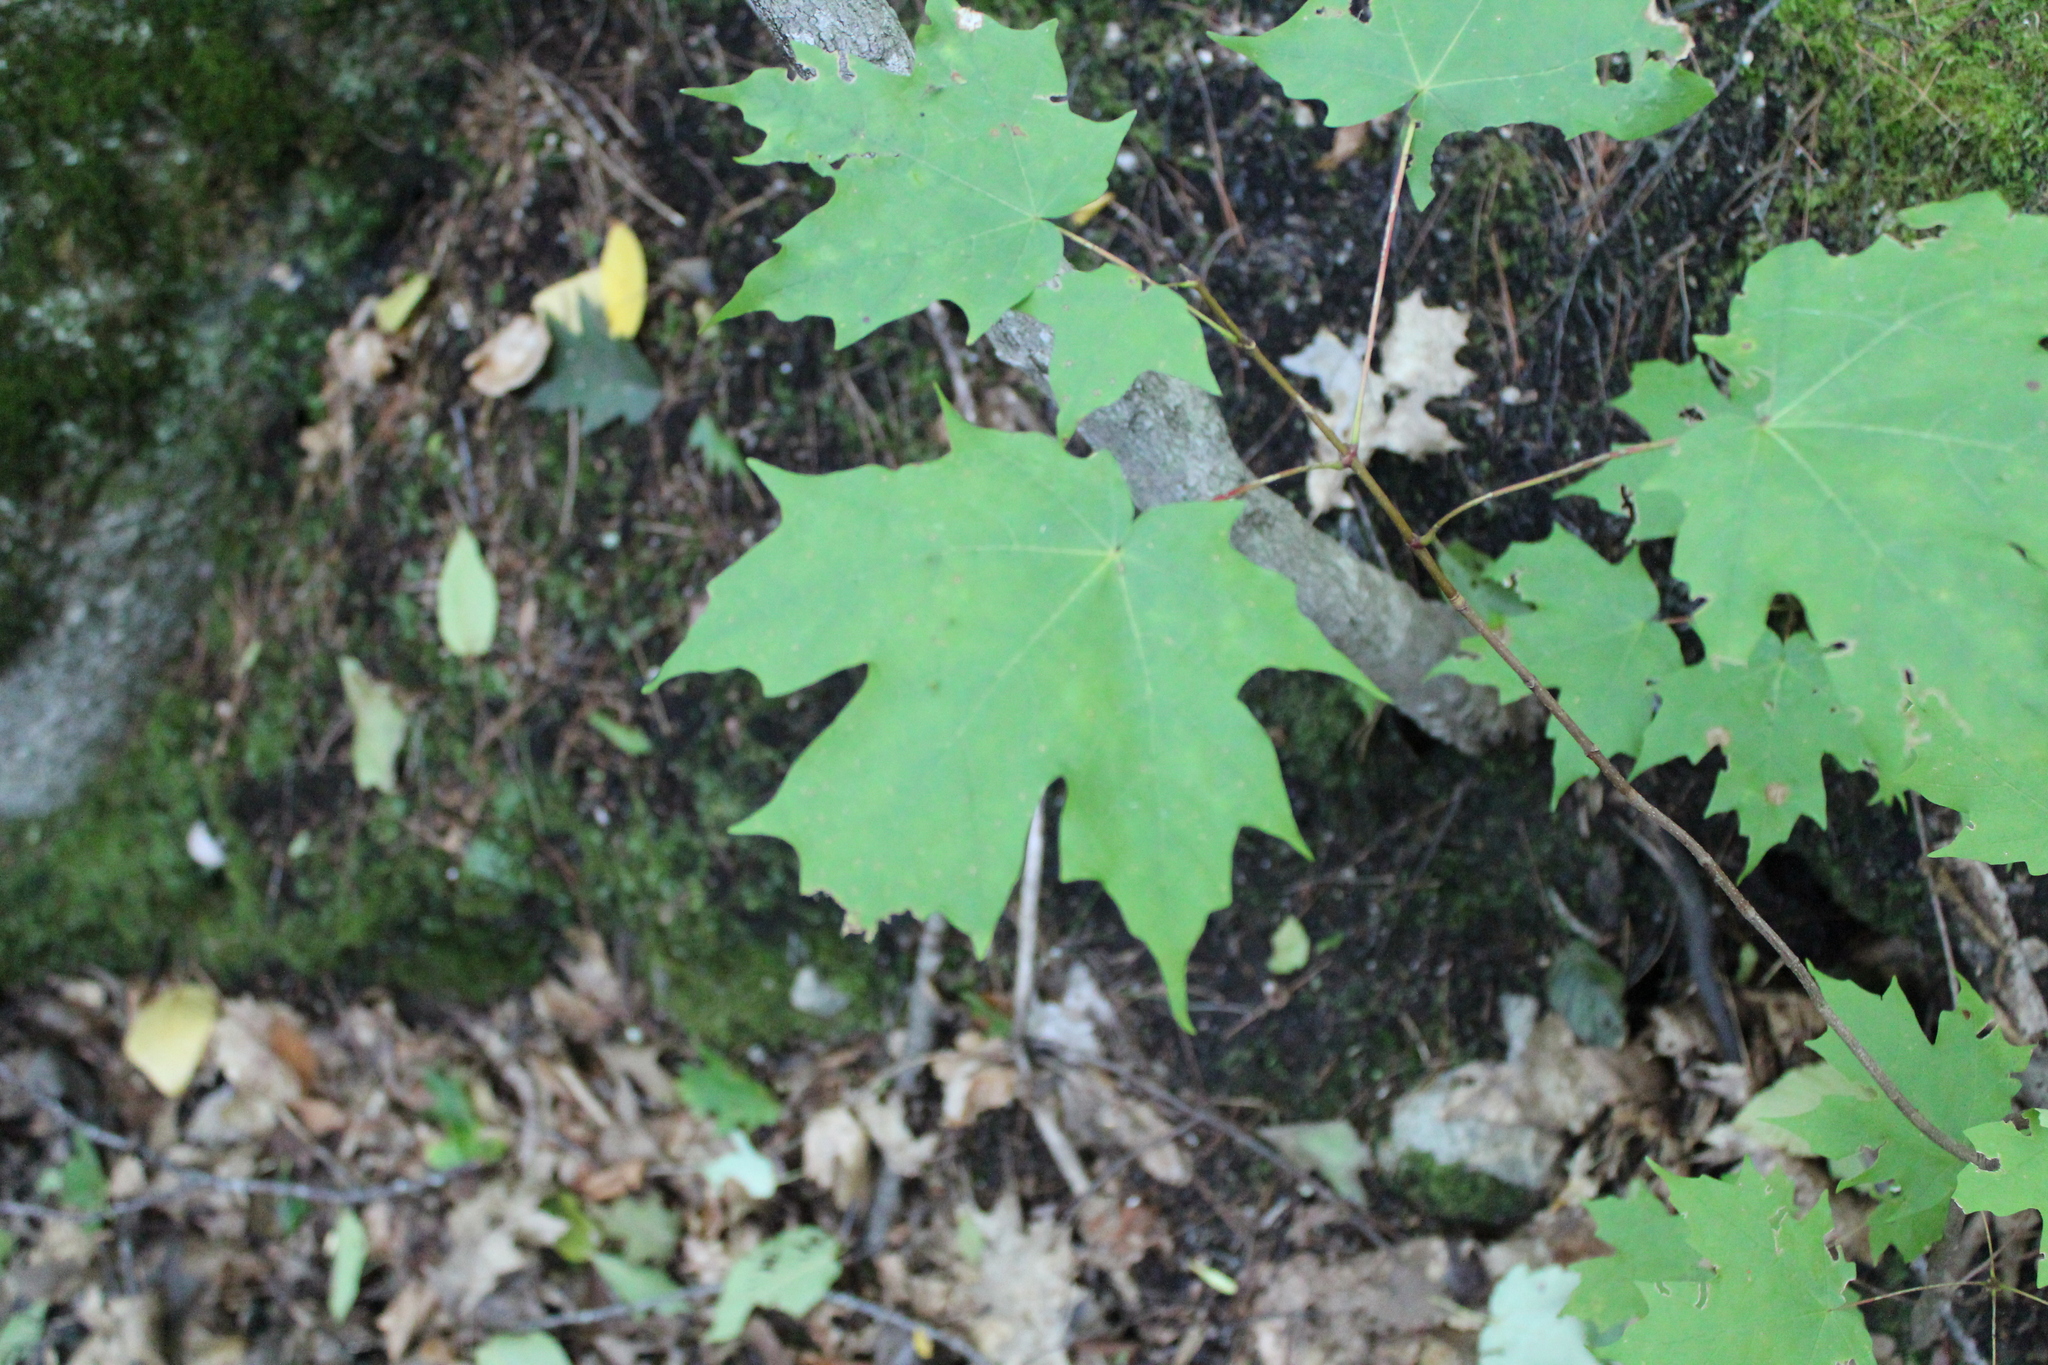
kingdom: Plantae
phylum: Tracheophyta
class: Magnoliopsida
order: Sapindales
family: Sapindaceae
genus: Acer
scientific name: Acer saccharum
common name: Sugar maple
